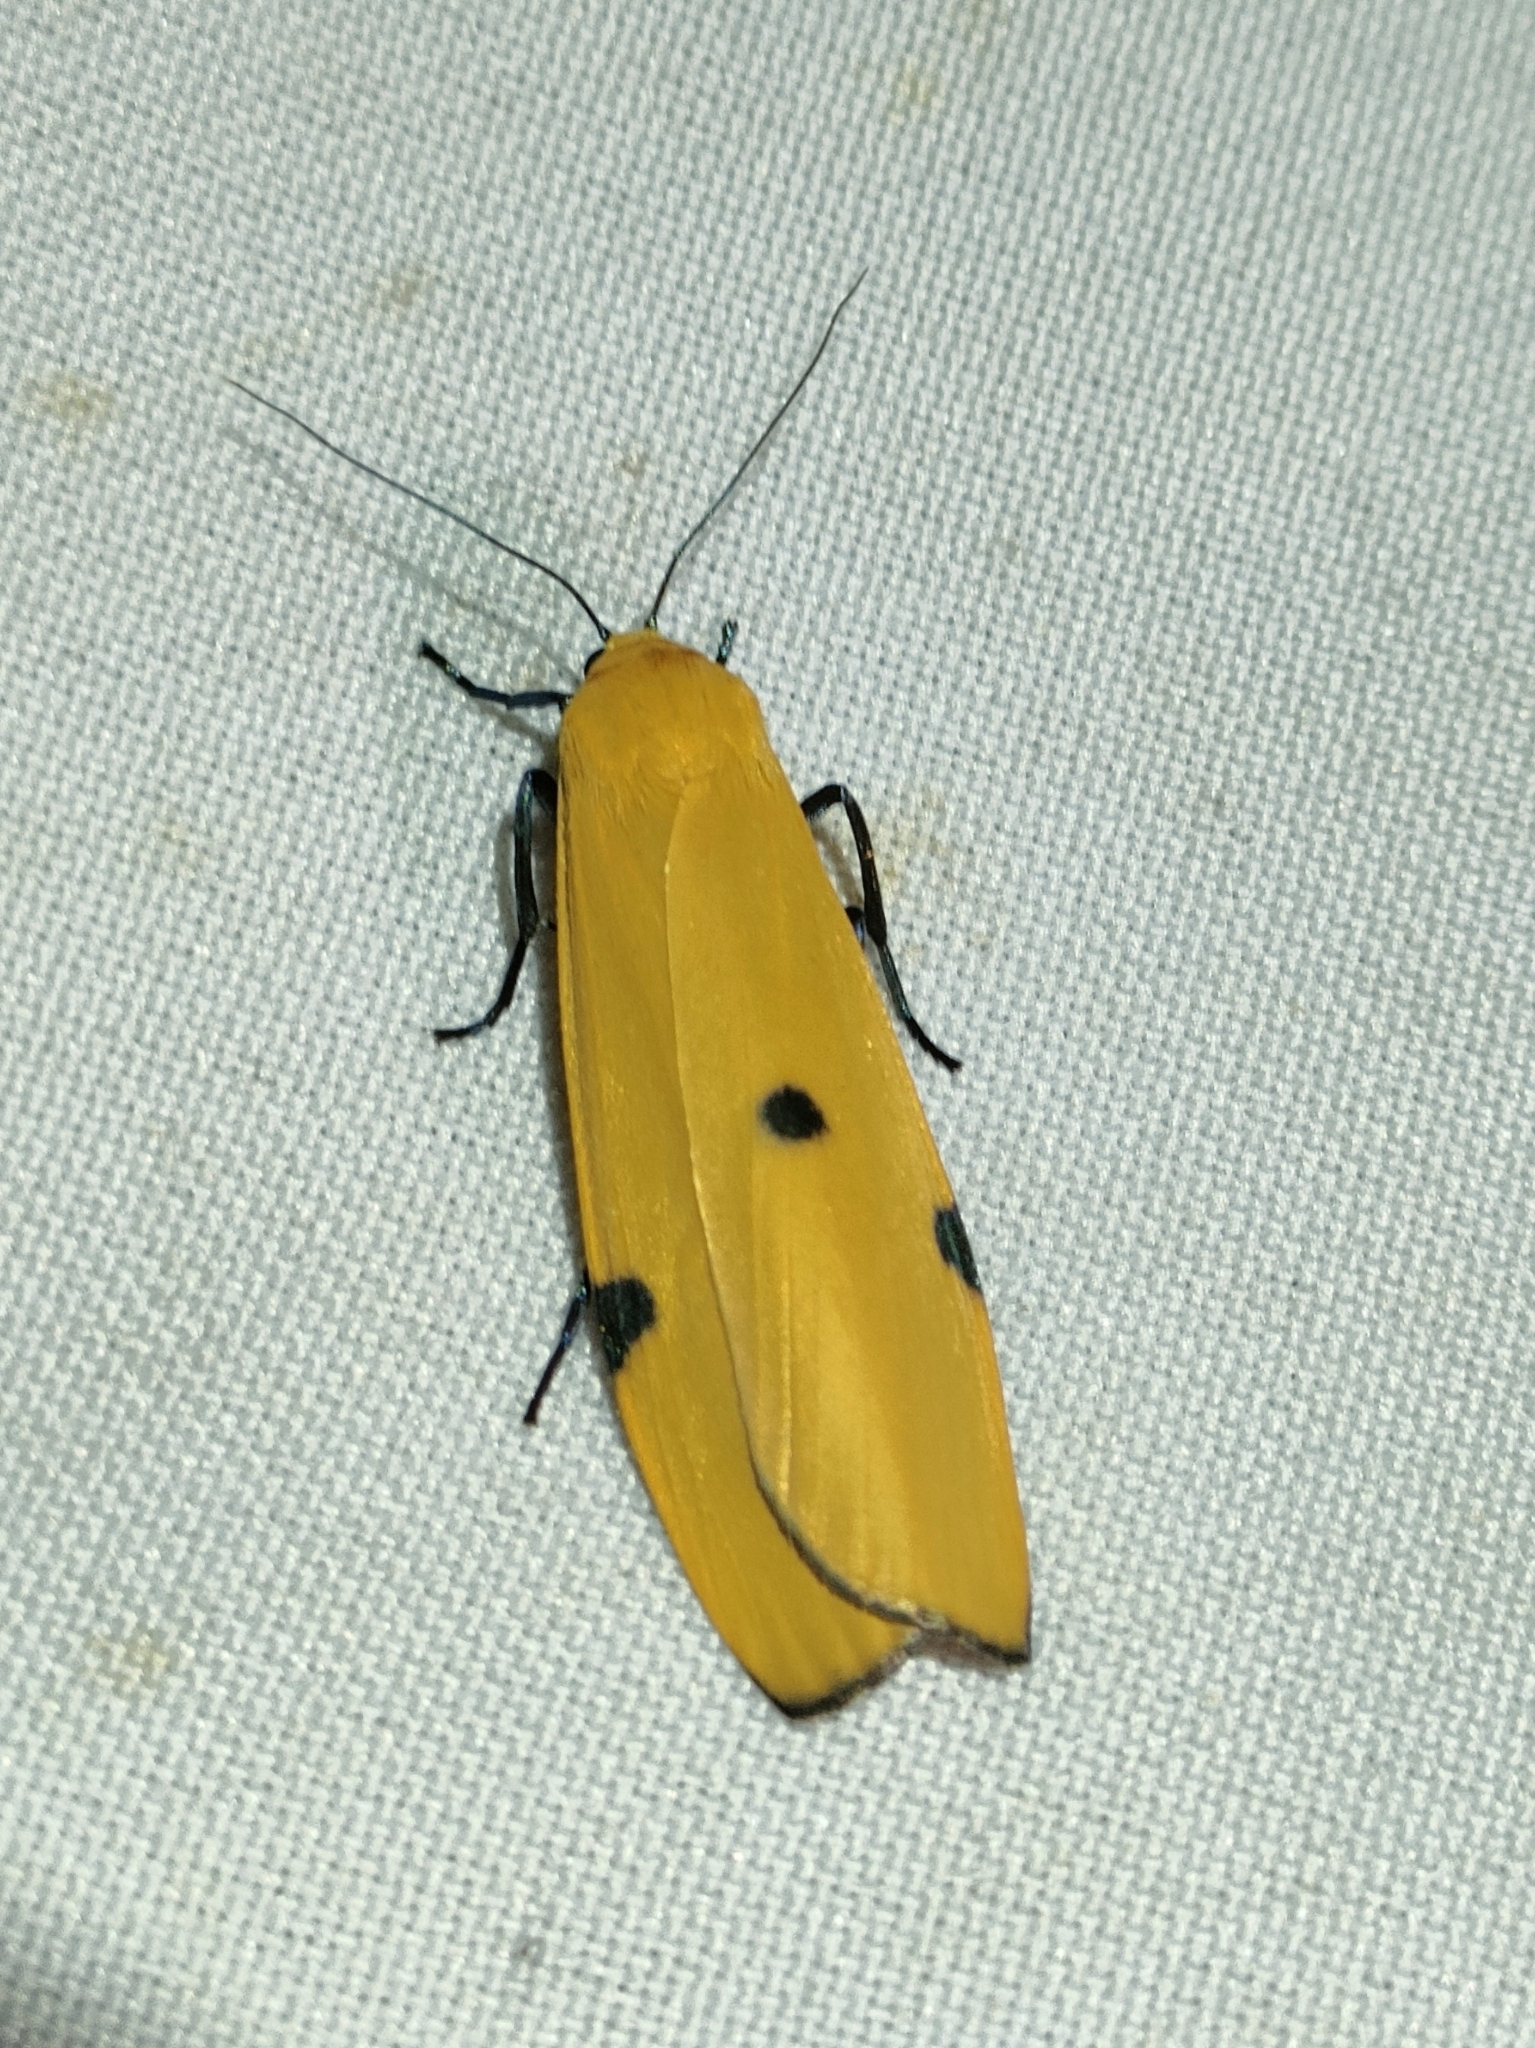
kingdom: Animalia
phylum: Arthropoda
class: Insecta
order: Lepidoptera
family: Erebidae
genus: Lithosia
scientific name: Lithosia quadra
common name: Four-spotted footman
